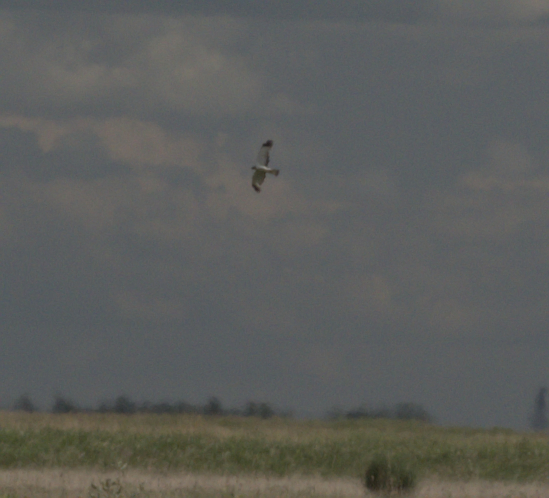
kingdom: Animalia
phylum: Chordata
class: Aves
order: Accipitriformes
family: Accipitridae
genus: Circus
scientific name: Circus cyaneus
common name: Hen harrier
